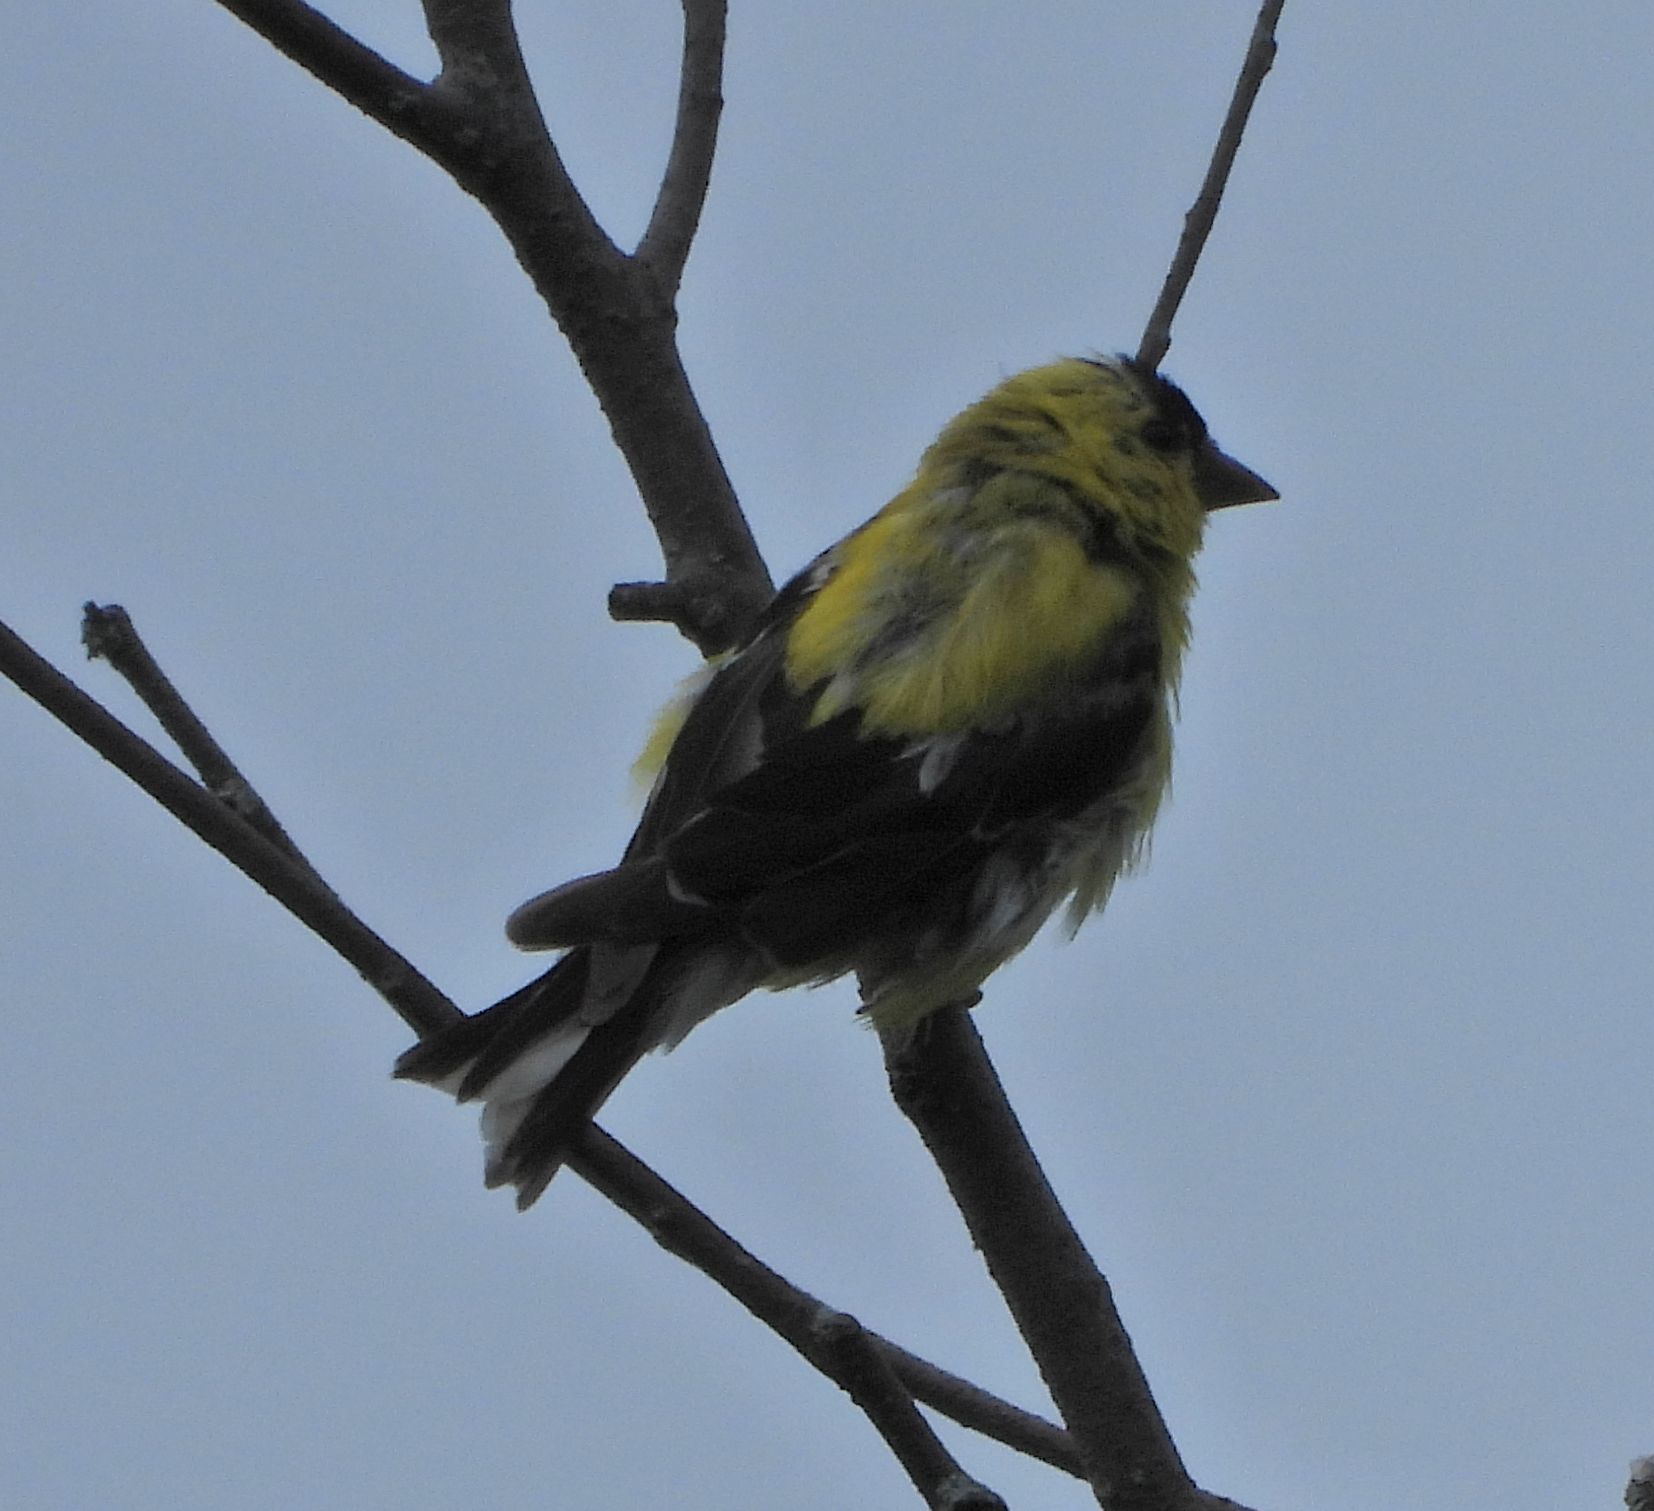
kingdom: Animalia
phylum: Chordata
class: Aves
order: Passeriformes
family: Fringillidae
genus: Spinus
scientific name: Spinus tristis
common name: American goldfinch
